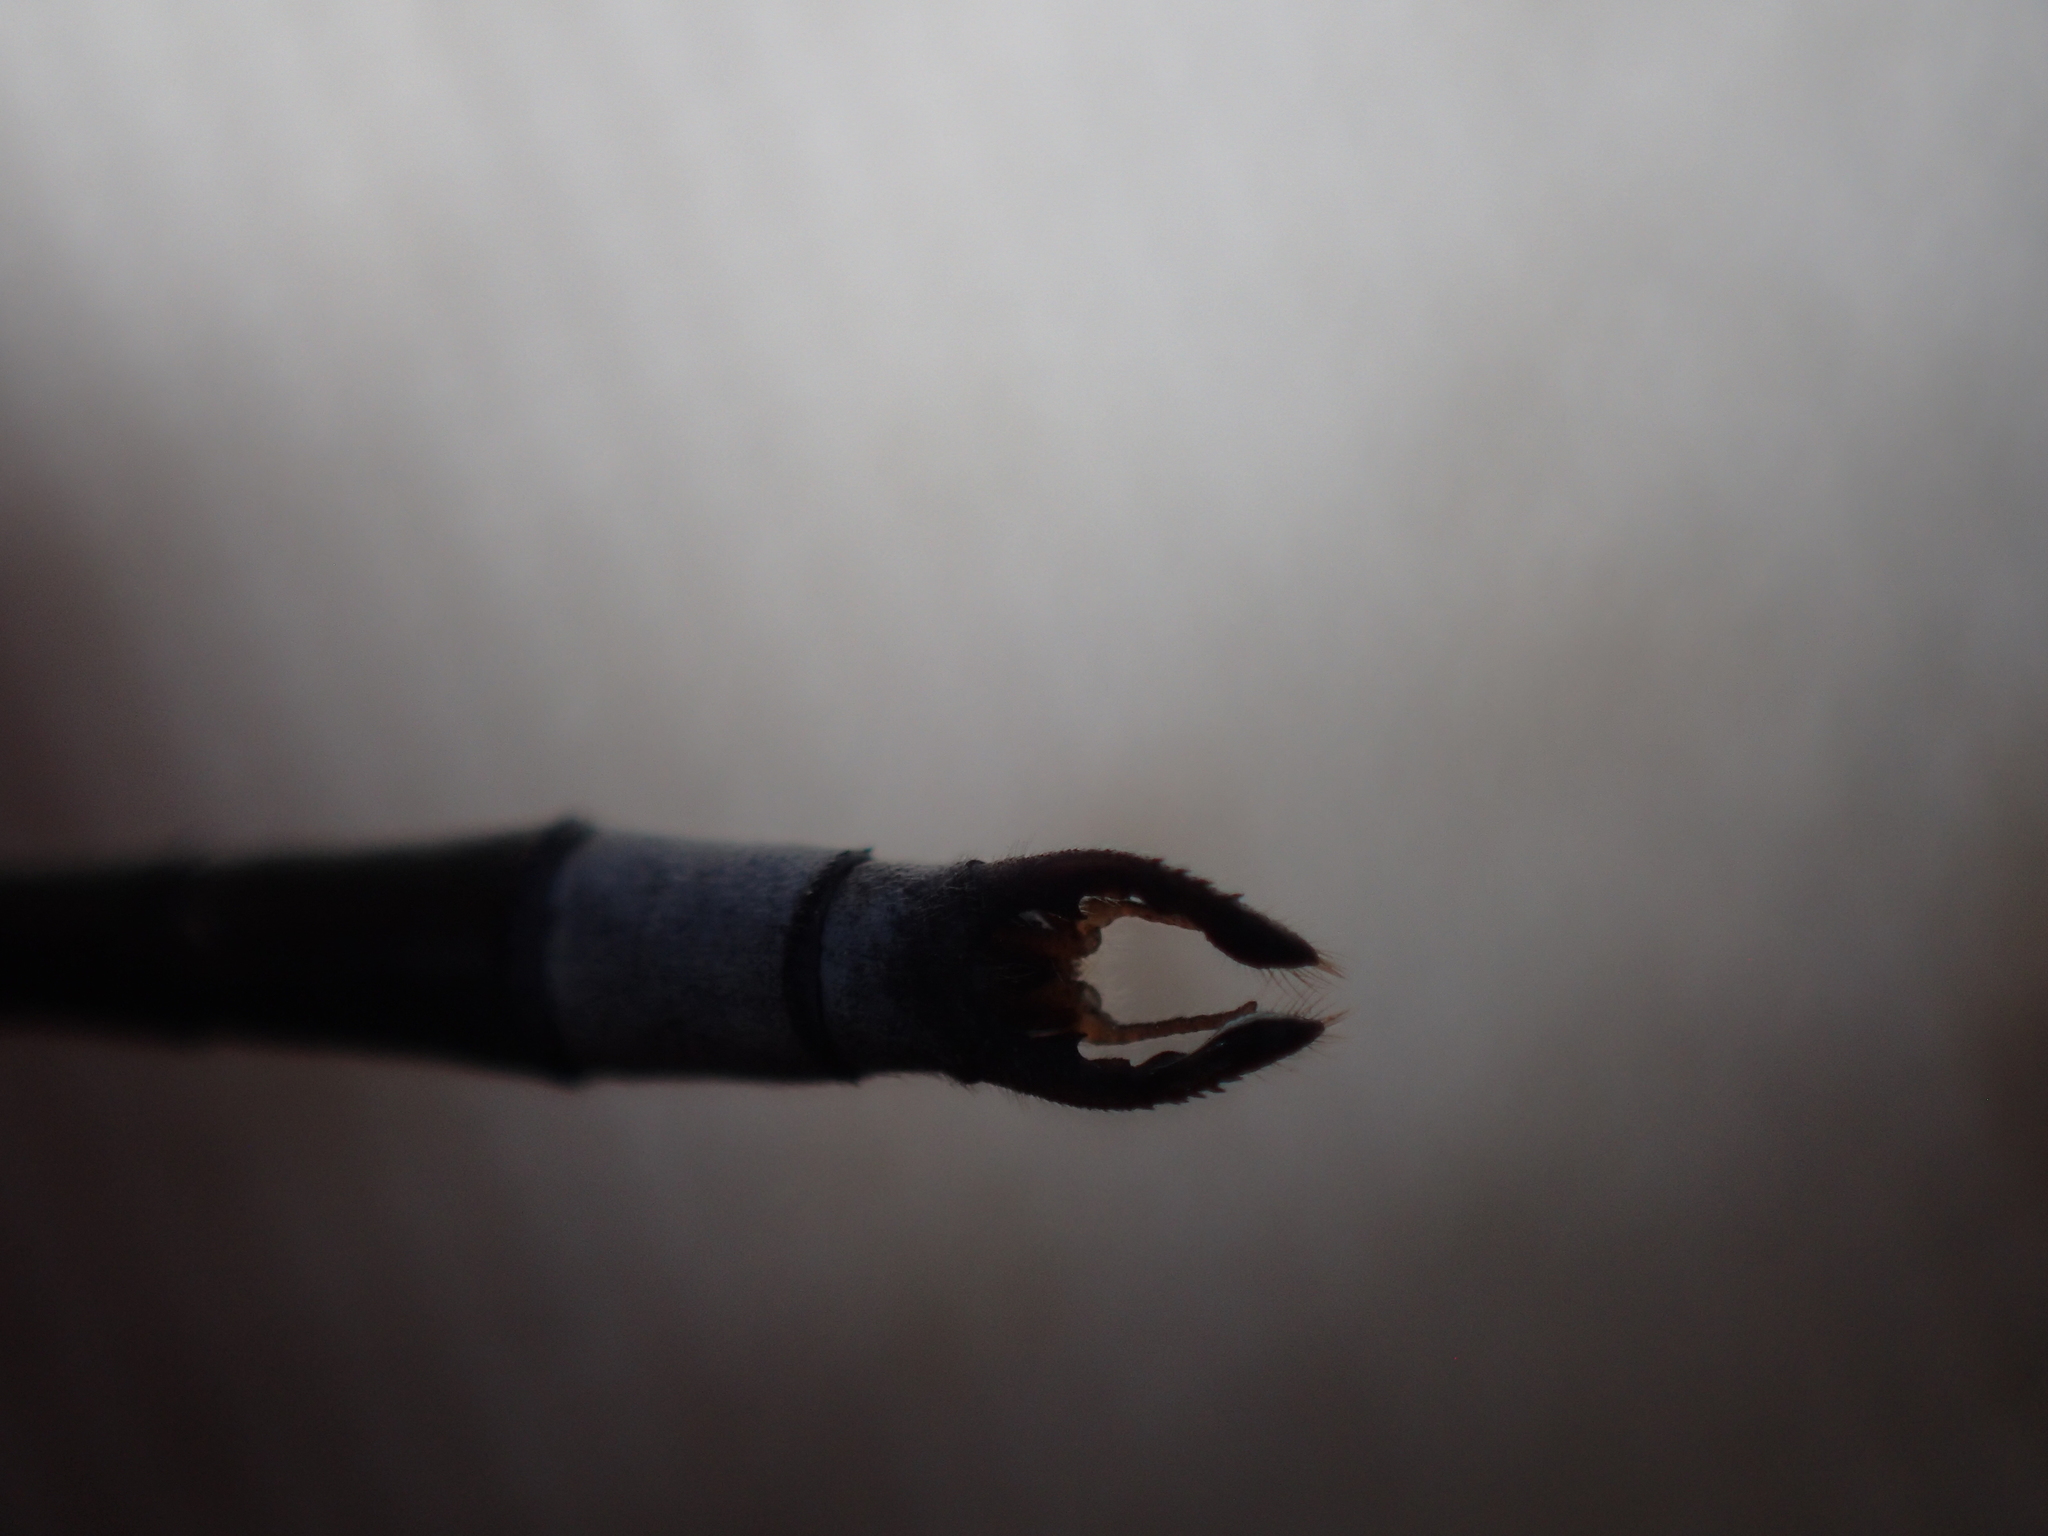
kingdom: Animalia
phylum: Arthropoda
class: Insecta
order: Odonata
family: Lestidae
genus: Lestes
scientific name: Lestes vigilax
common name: Swamp spreadwing
